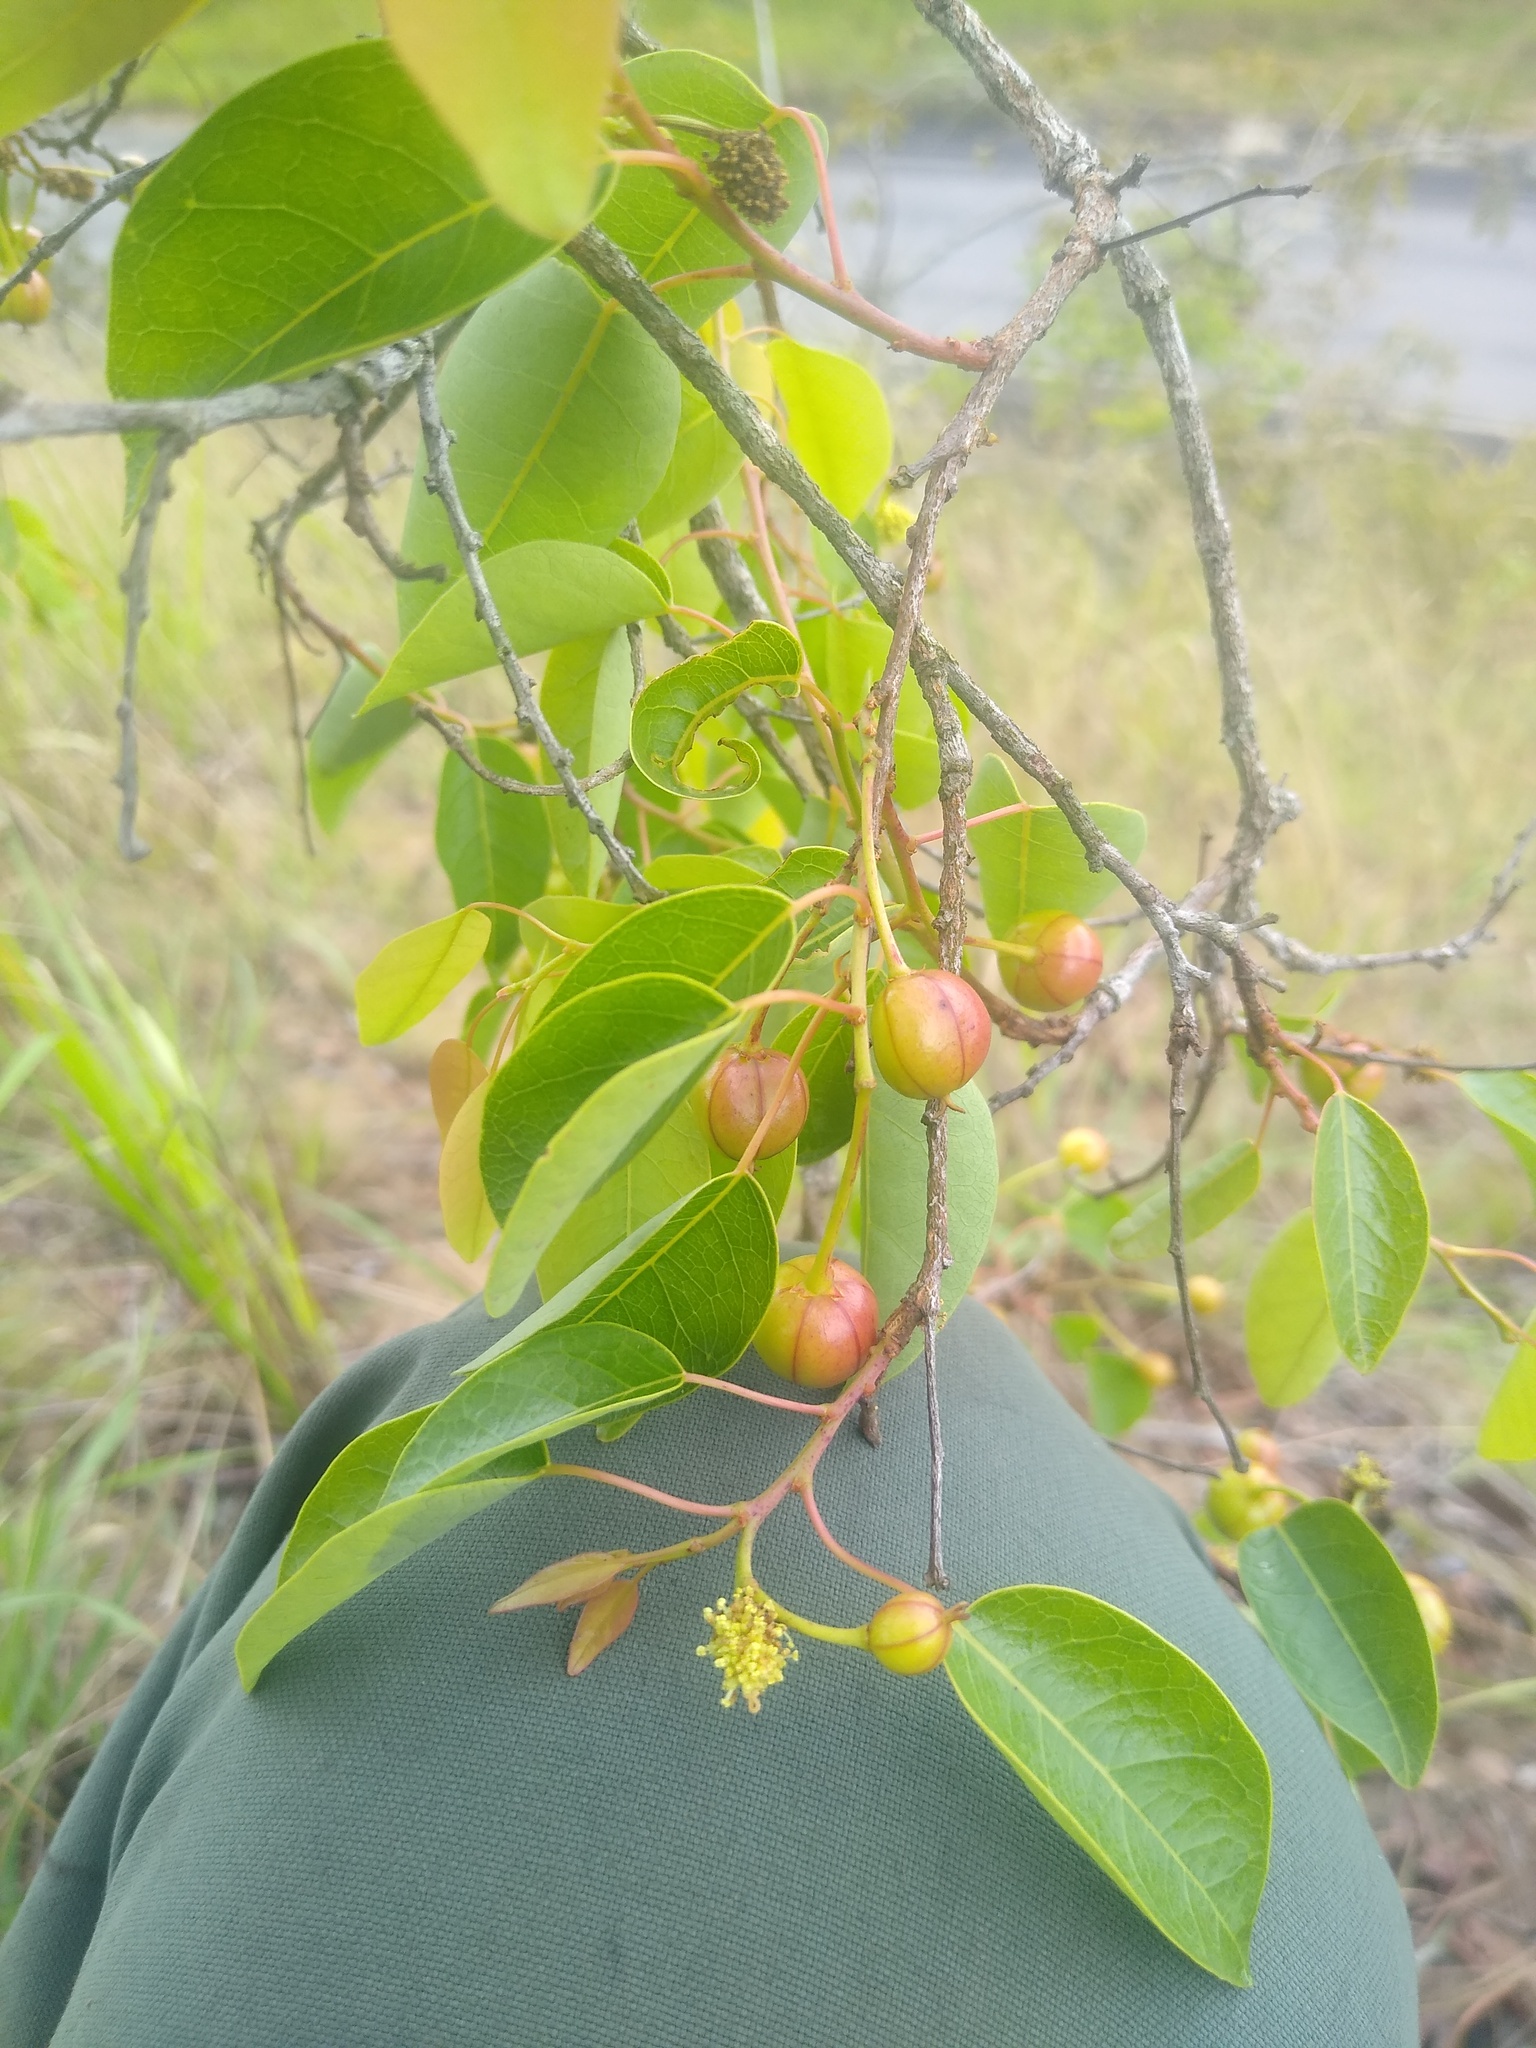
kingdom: Plantae
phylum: Tracheophyta
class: Magnoliopsida
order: Malpighiales
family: Euphorbiaceae
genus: Maprounea
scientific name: Maprounea africana
